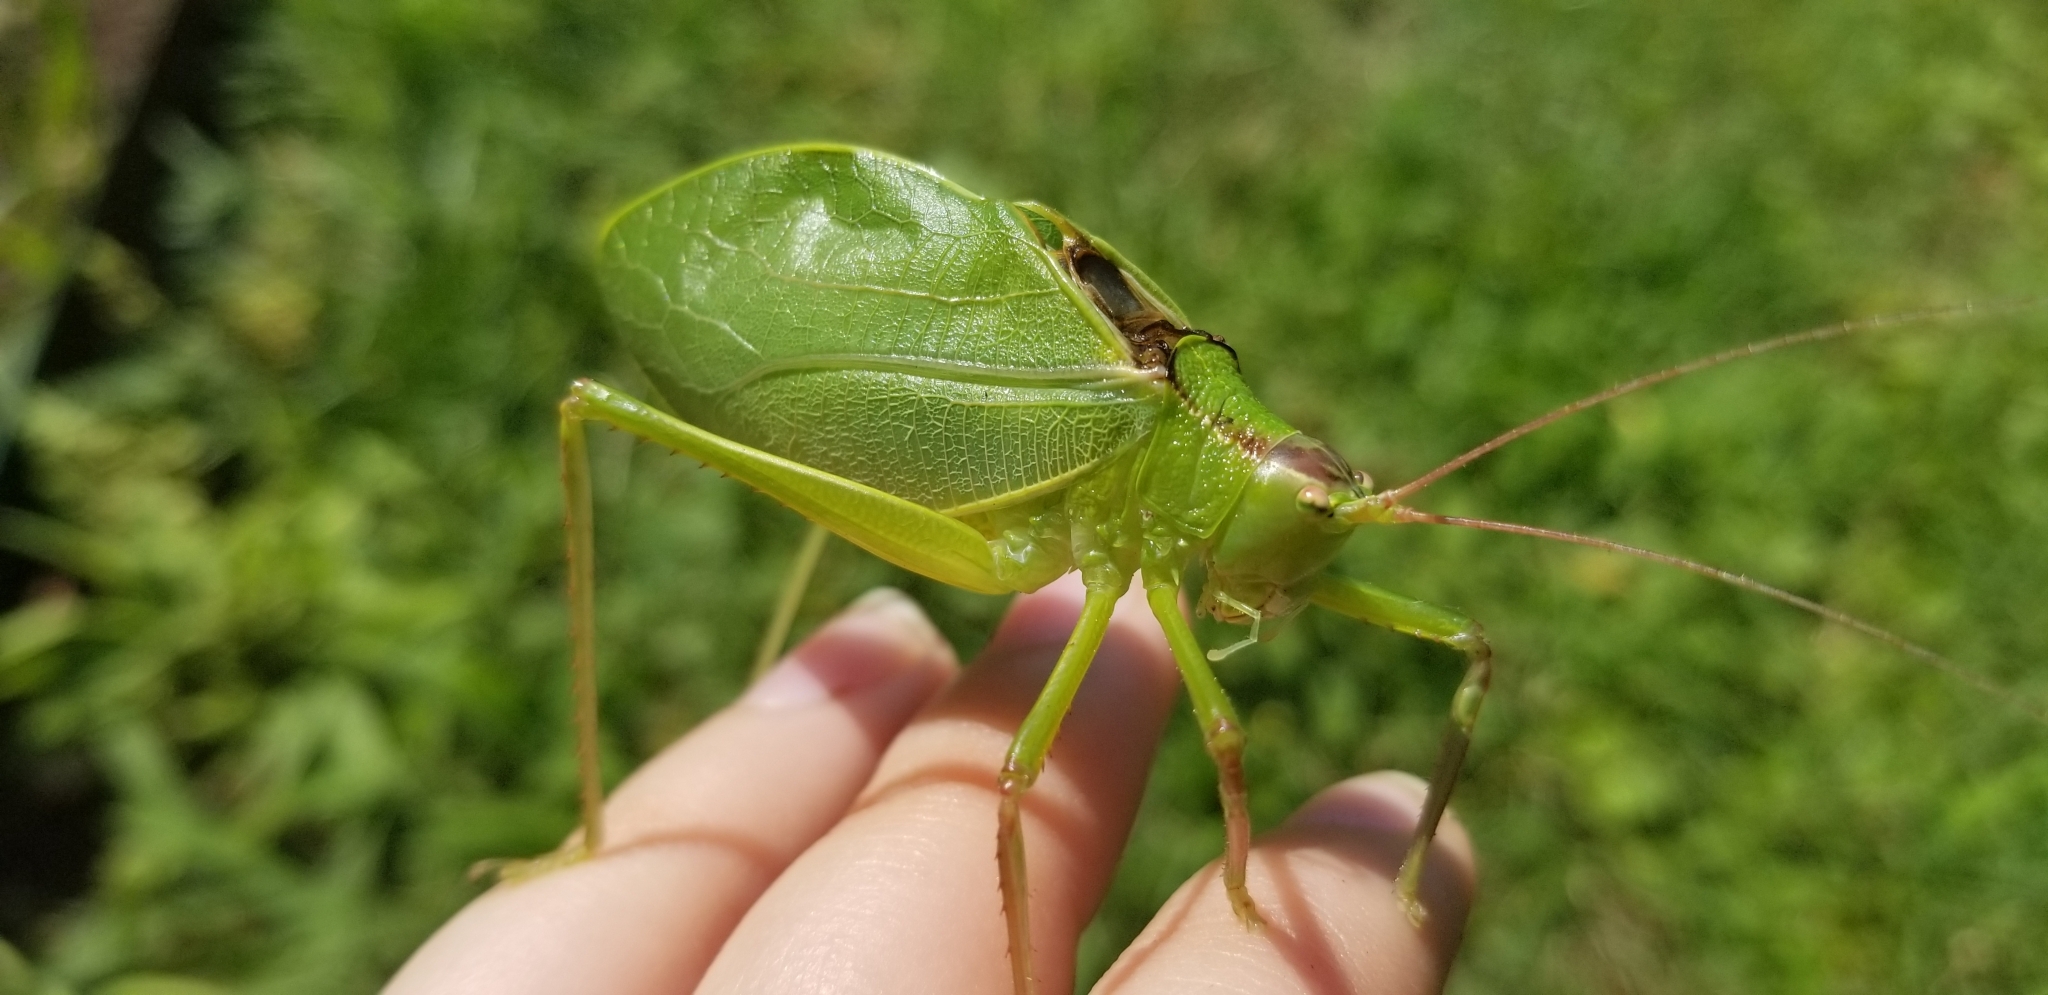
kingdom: Animalia
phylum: Arthropoda
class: Insecta
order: Orthoptera
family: Tettigoniidae
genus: Paracyrtophyllus
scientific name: Paracyrtophyllus robustus
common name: Central texas leaf katydid
